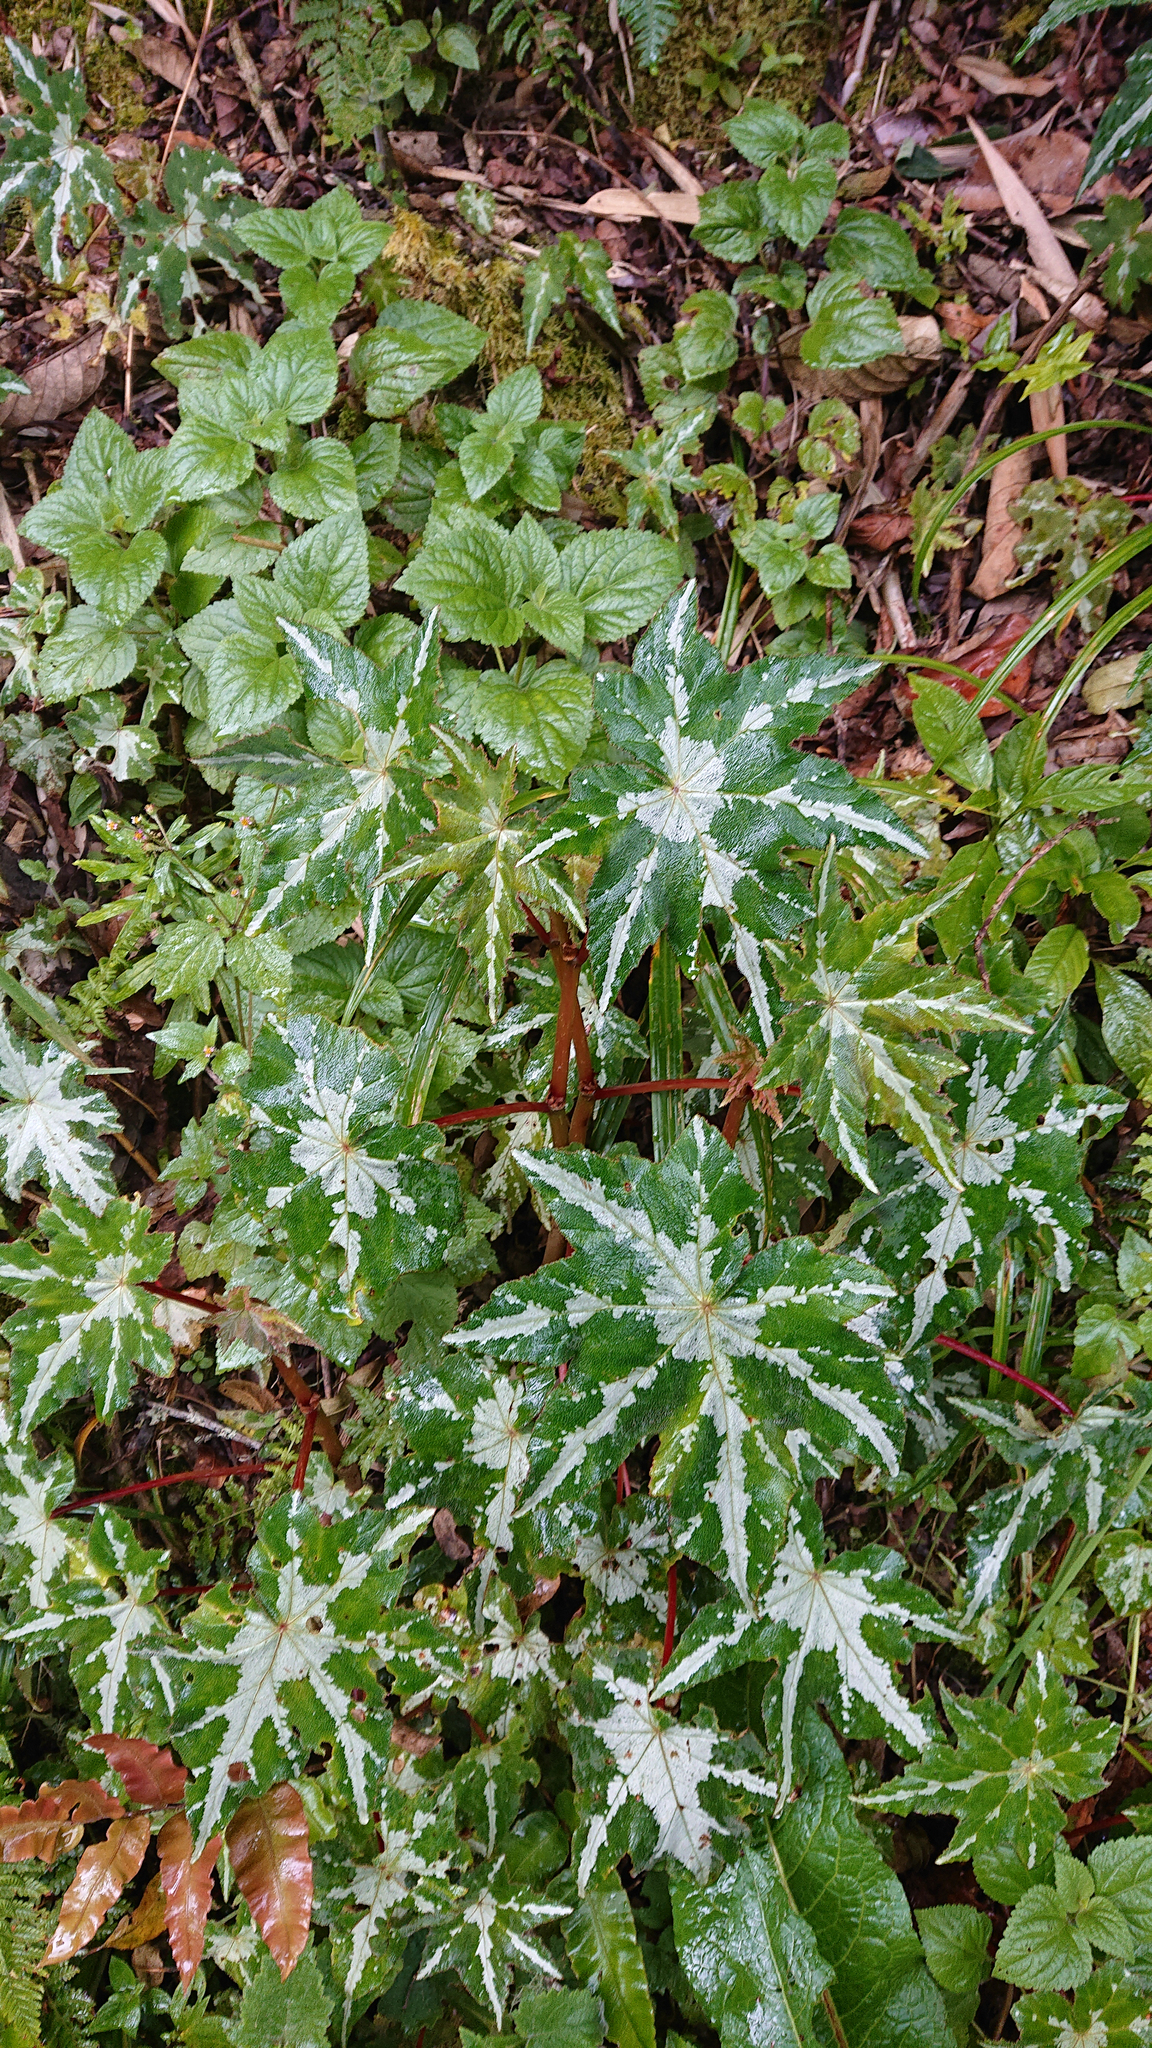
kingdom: Plantae
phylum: Tracheophyta
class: Magnoliopsida
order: Cucurbitales
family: Begoniaceae
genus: Begonia
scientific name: Begonia acerifolia
